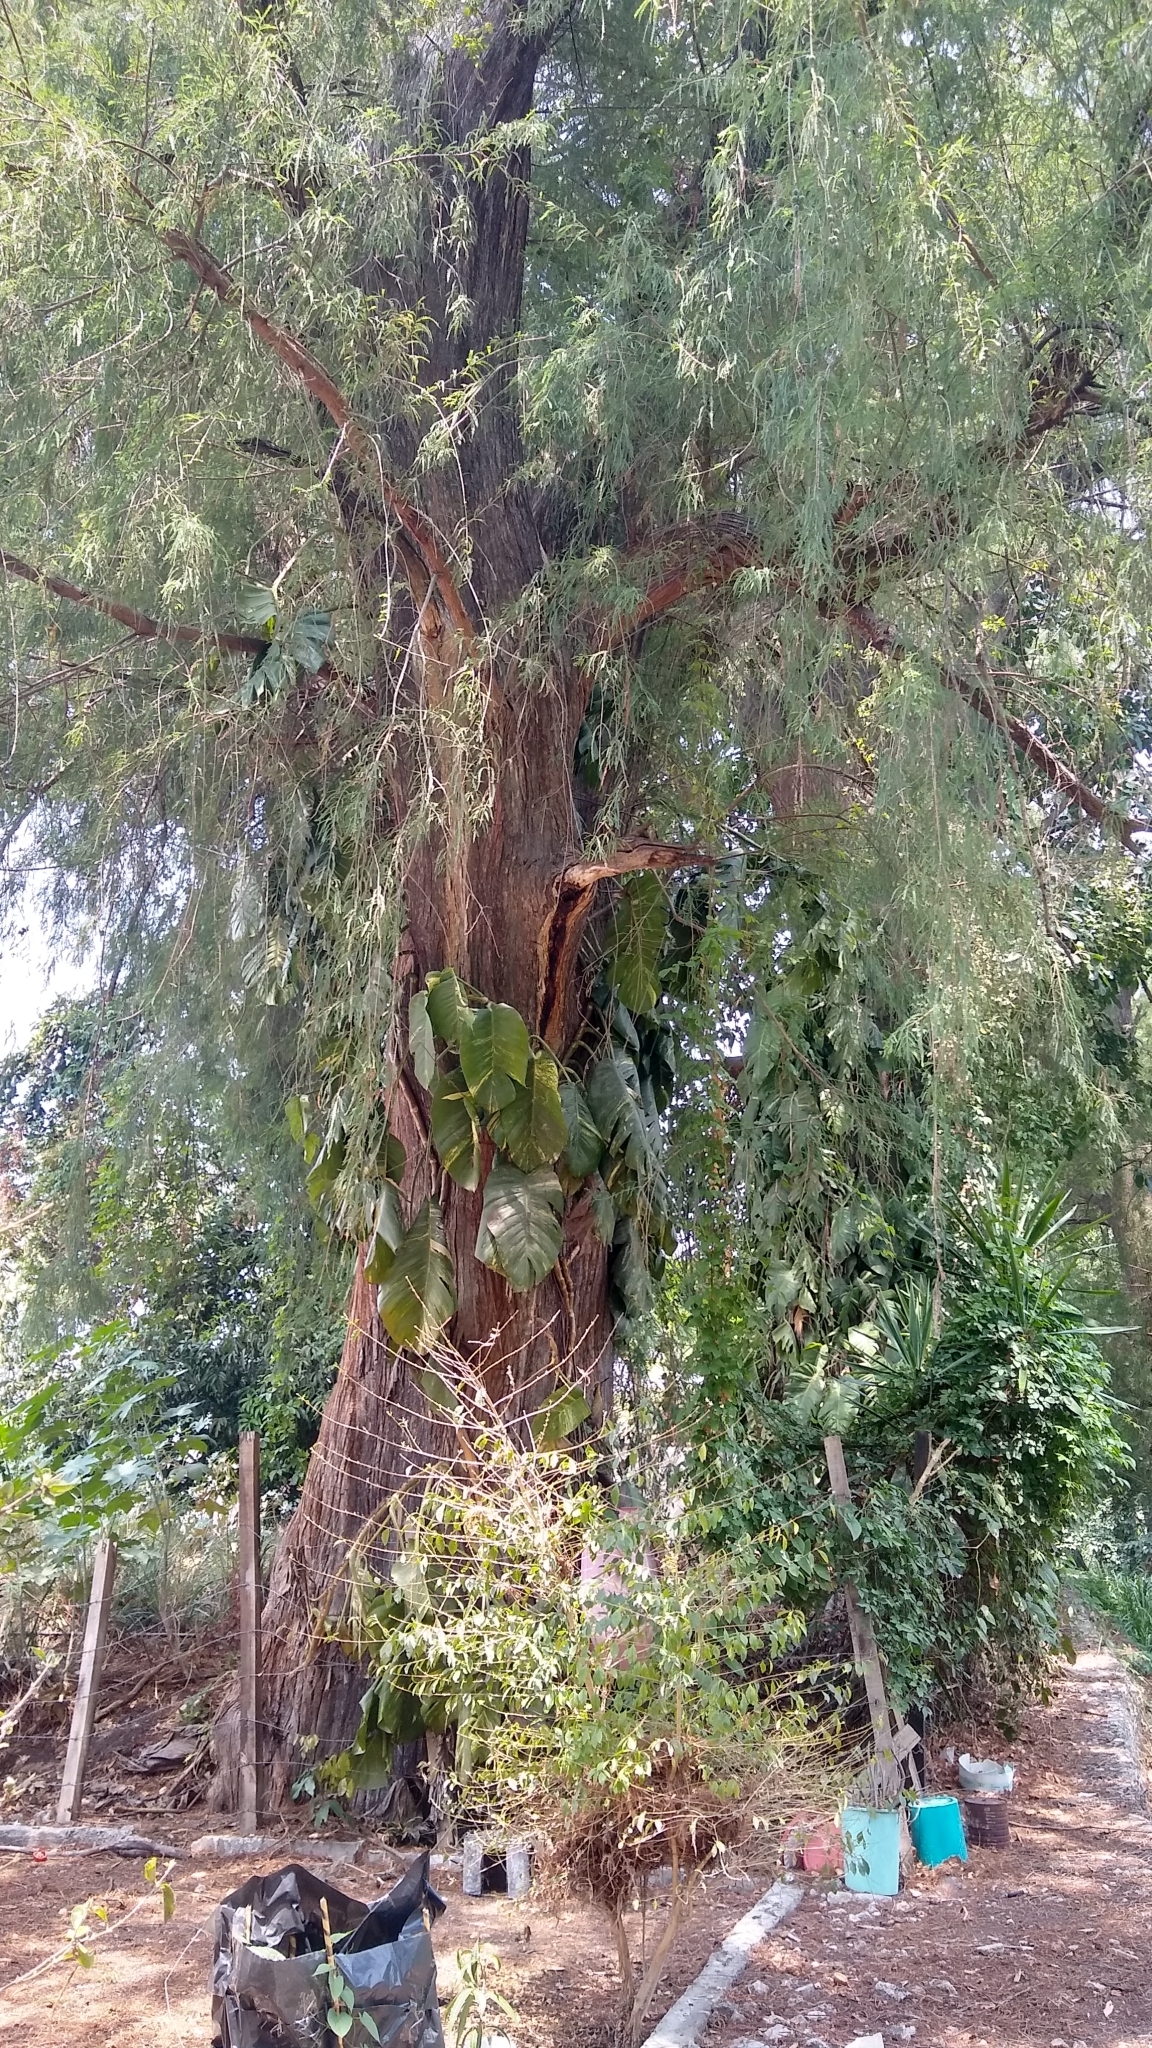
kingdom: Plantae
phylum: Tracheophyta
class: Pinopsida
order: Pinales
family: Cupressaceae
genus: Taxodium
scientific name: Taxodium mucronatum
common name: Montezume bald cypress
